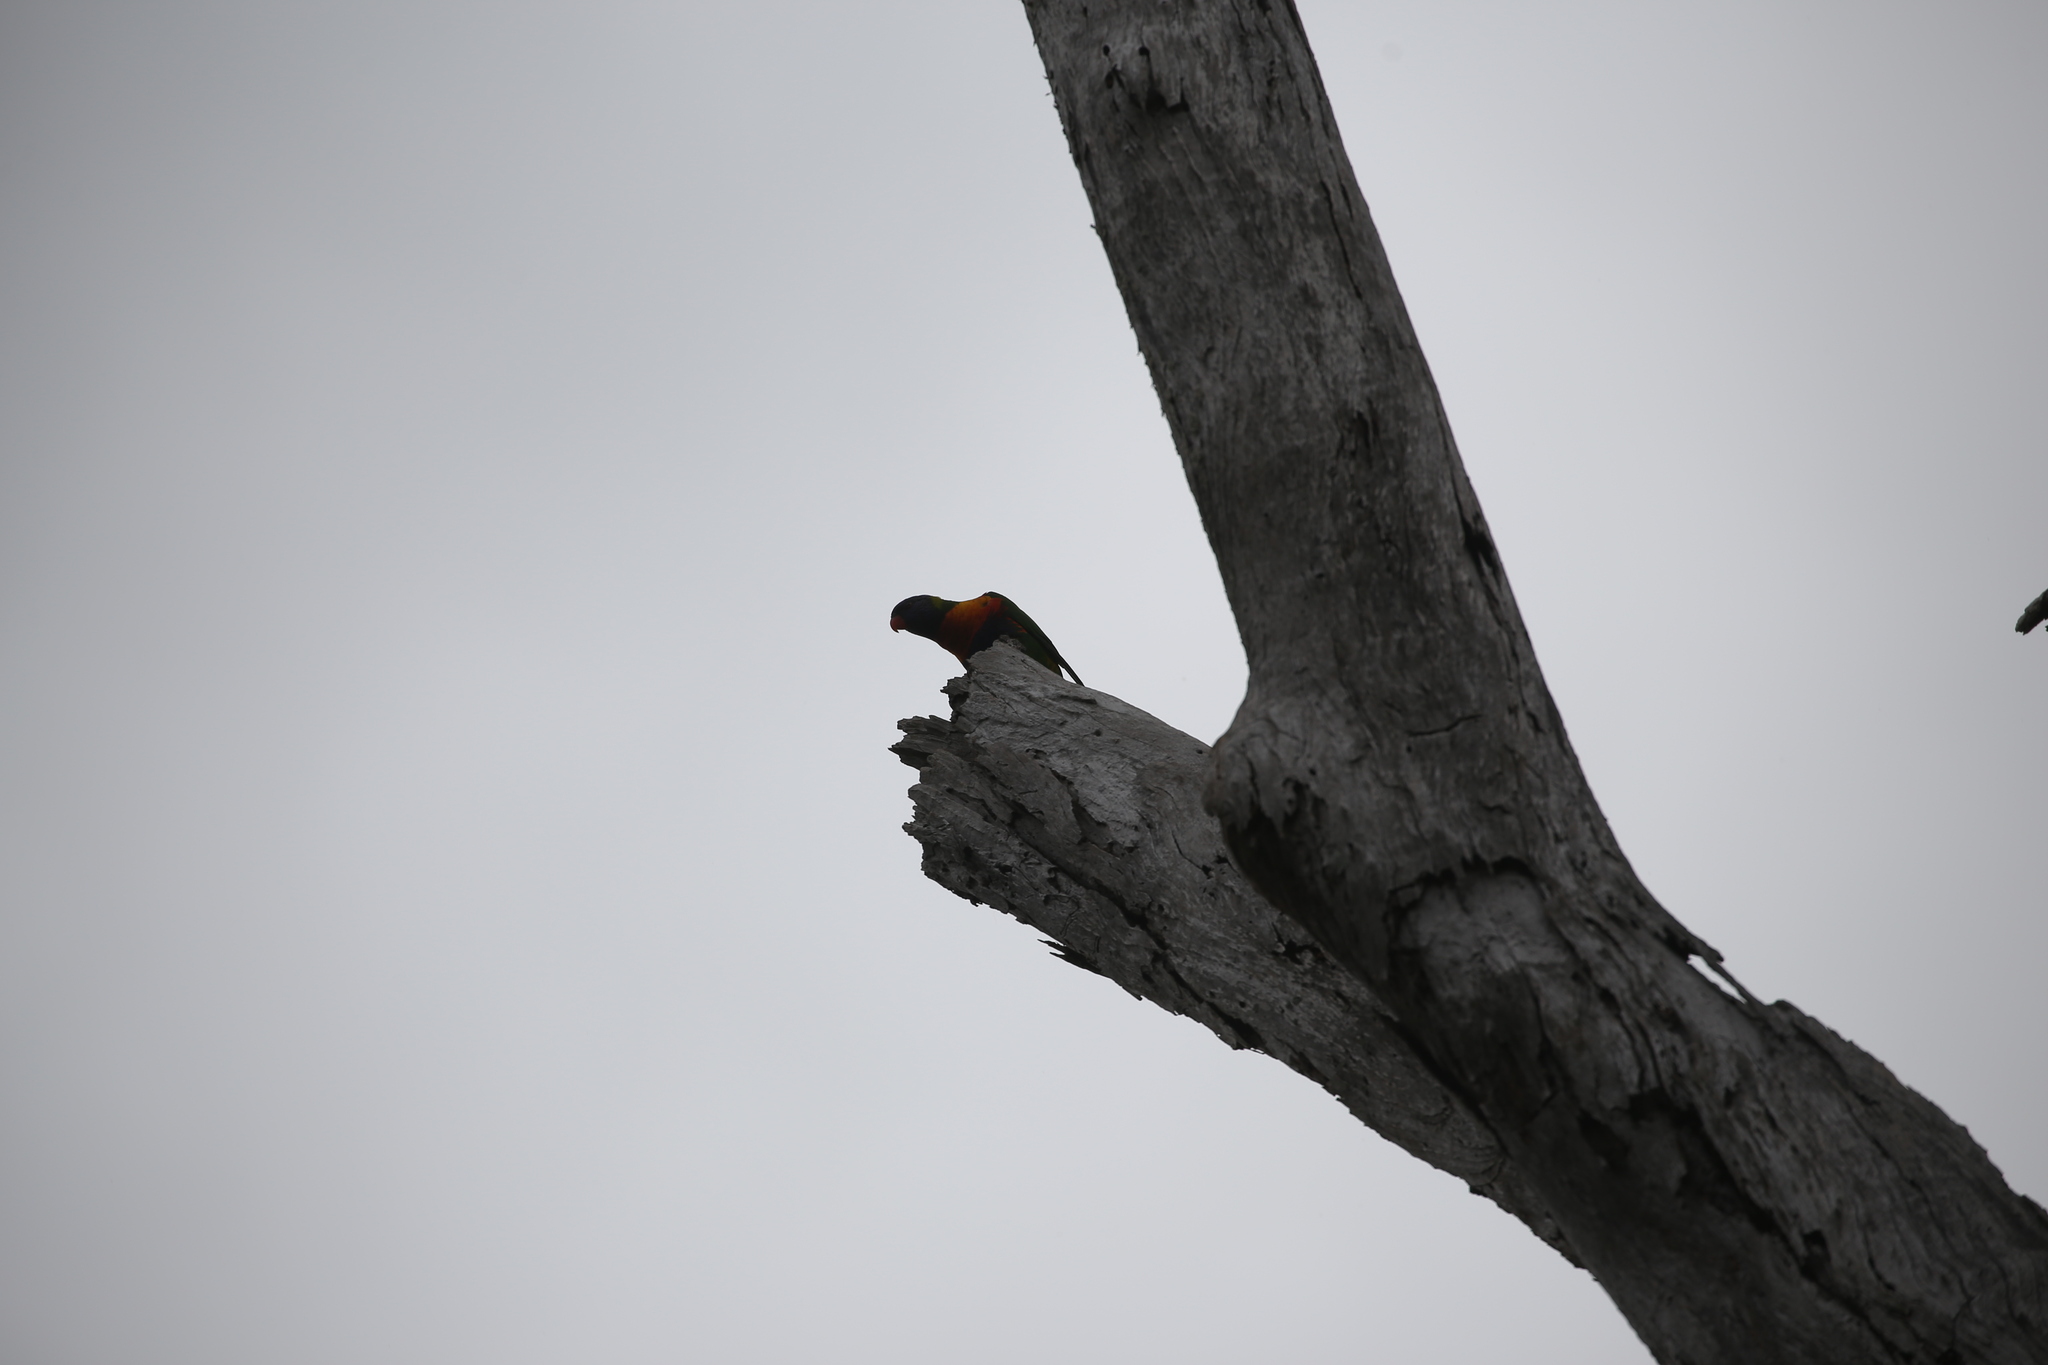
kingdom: Animalia
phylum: Chordata
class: Aves
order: Psittaciformes
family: Psittacidae
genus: Trichoglossus
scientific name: Trichoglossus haematodus
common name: Coconut lorikeet
